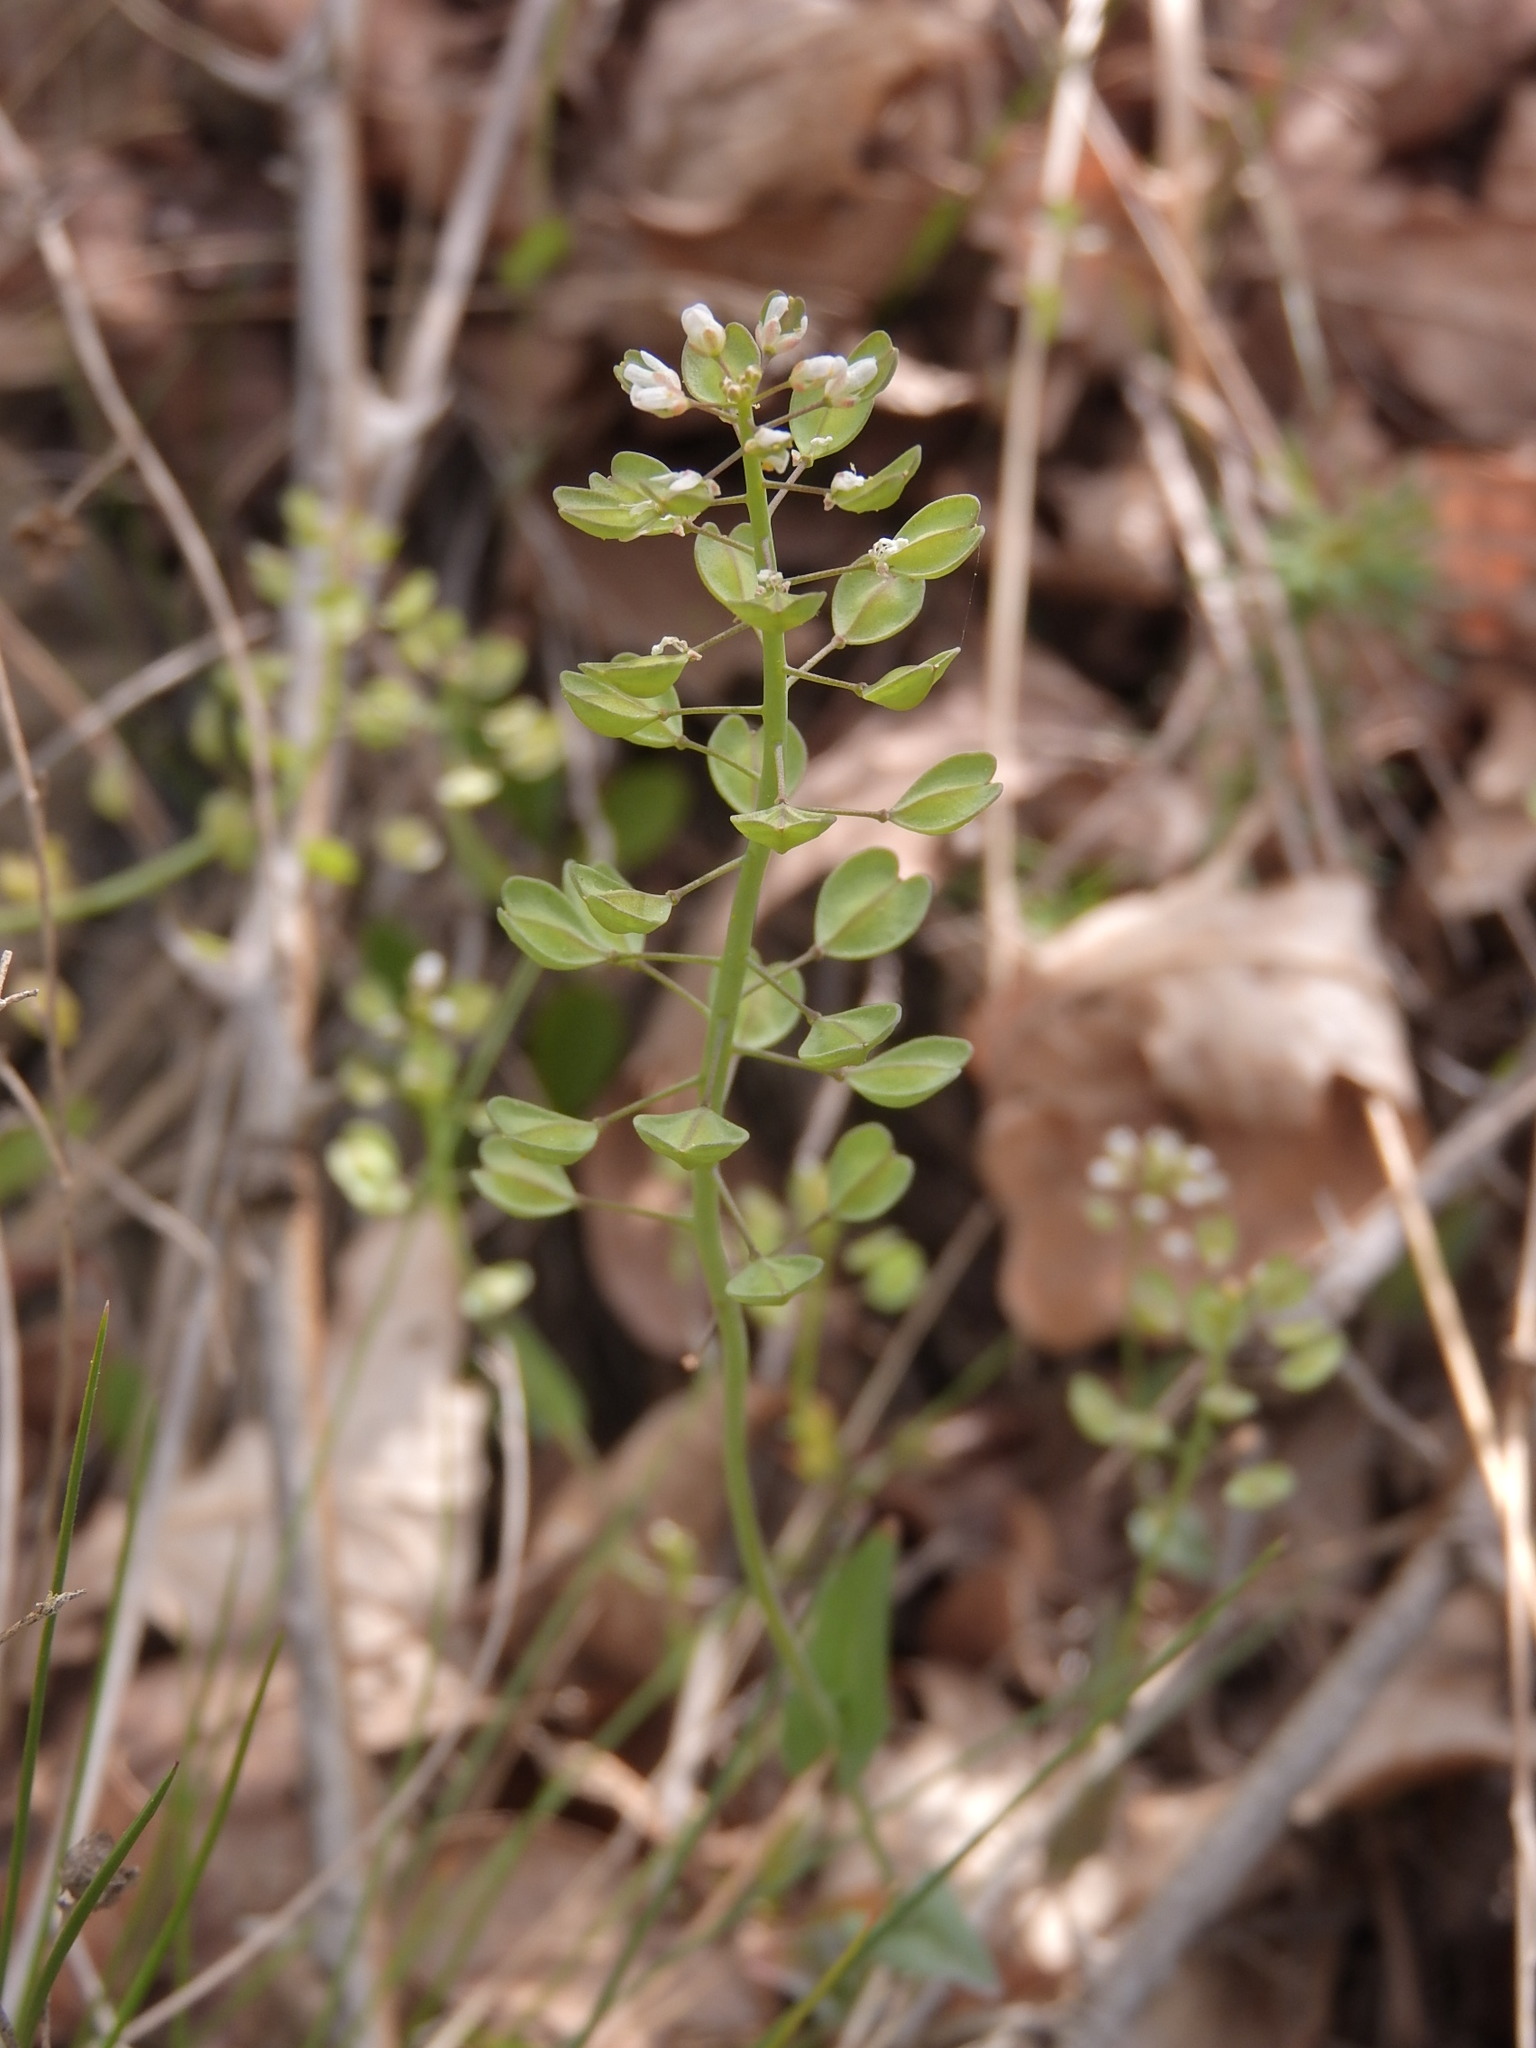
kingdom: Plantae
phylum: Tracheophyta
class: Magnoliopsida
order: Brassicales
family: Brassicaceae
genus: Noccaea
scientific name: Noccaea perfoliata
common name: Perfoliate pennycress
